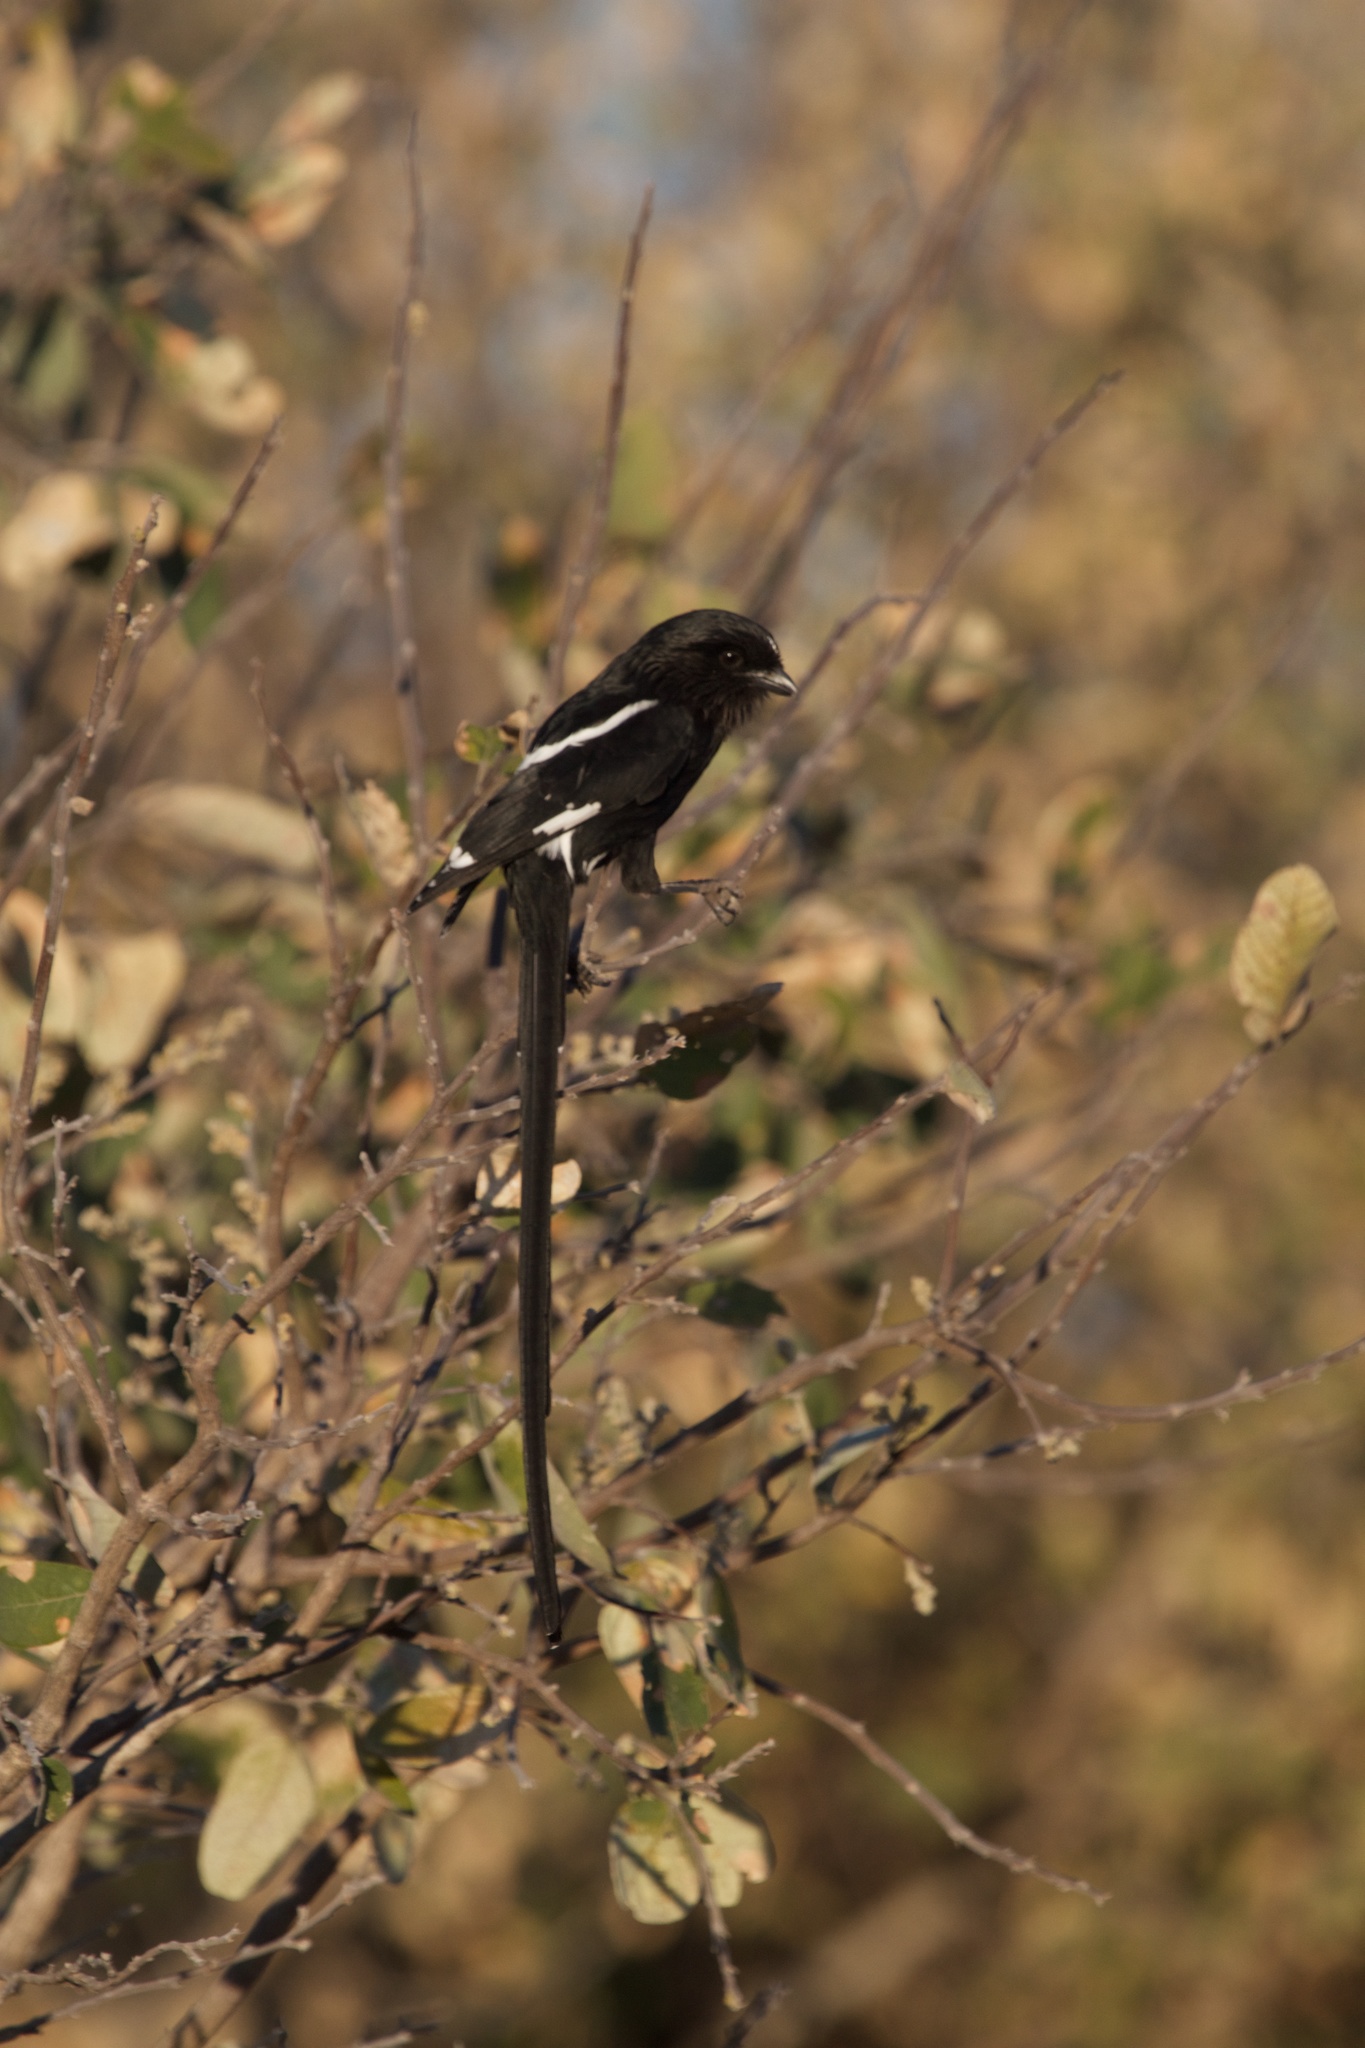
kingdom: Animalia
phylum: Chordata
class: Aves
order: Passeriformes
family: Laniidae
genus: Urolestes
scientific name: Urolestes melanoleucus
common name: Magpie shrike
